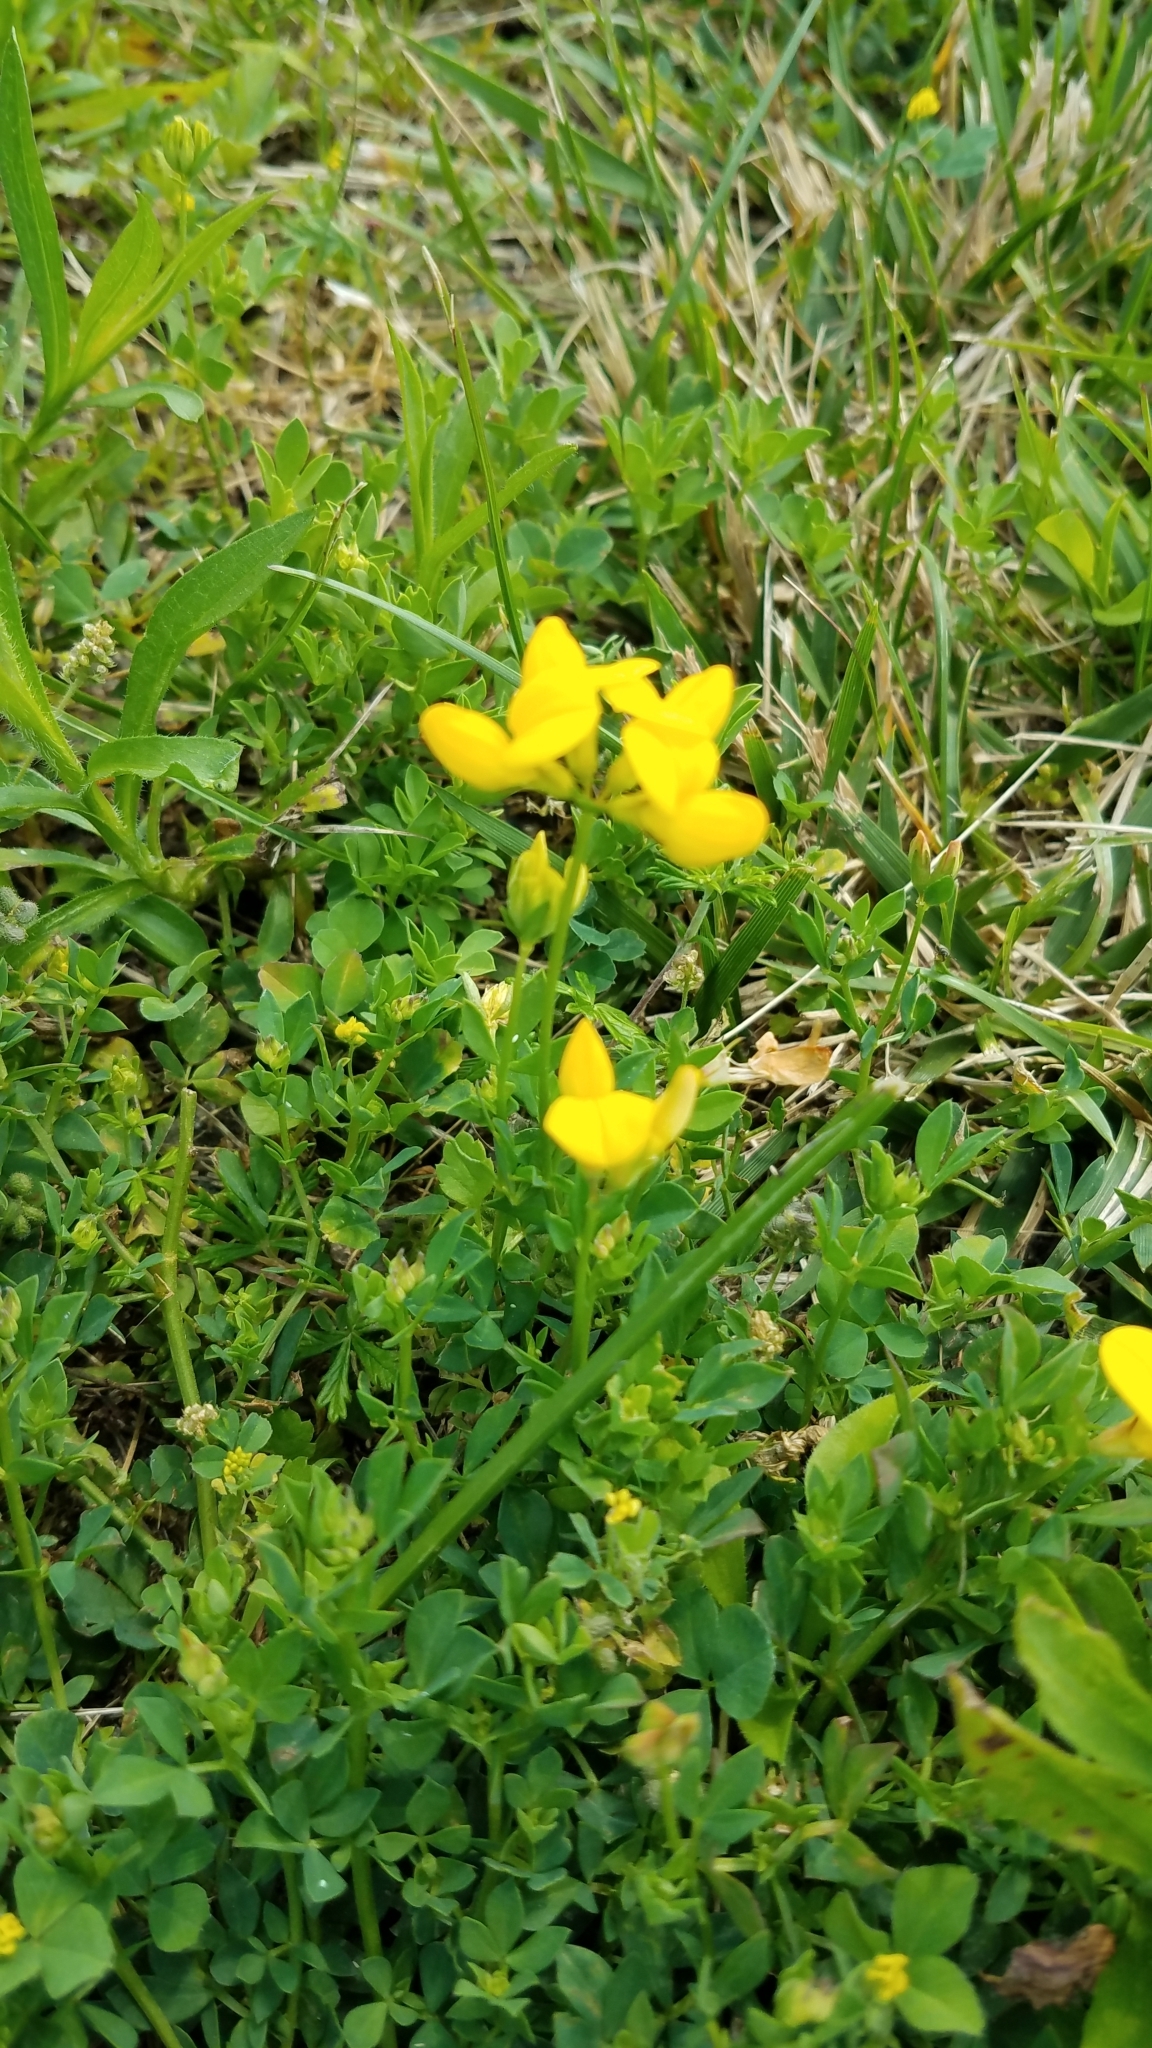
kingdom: Plantae
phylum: Tracheophyta
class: Magnoliopsida
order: Fabales
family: Fabaceae
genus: Lotus
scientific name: Lotus corniculatus
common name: Common bird's-foot-trefoil
